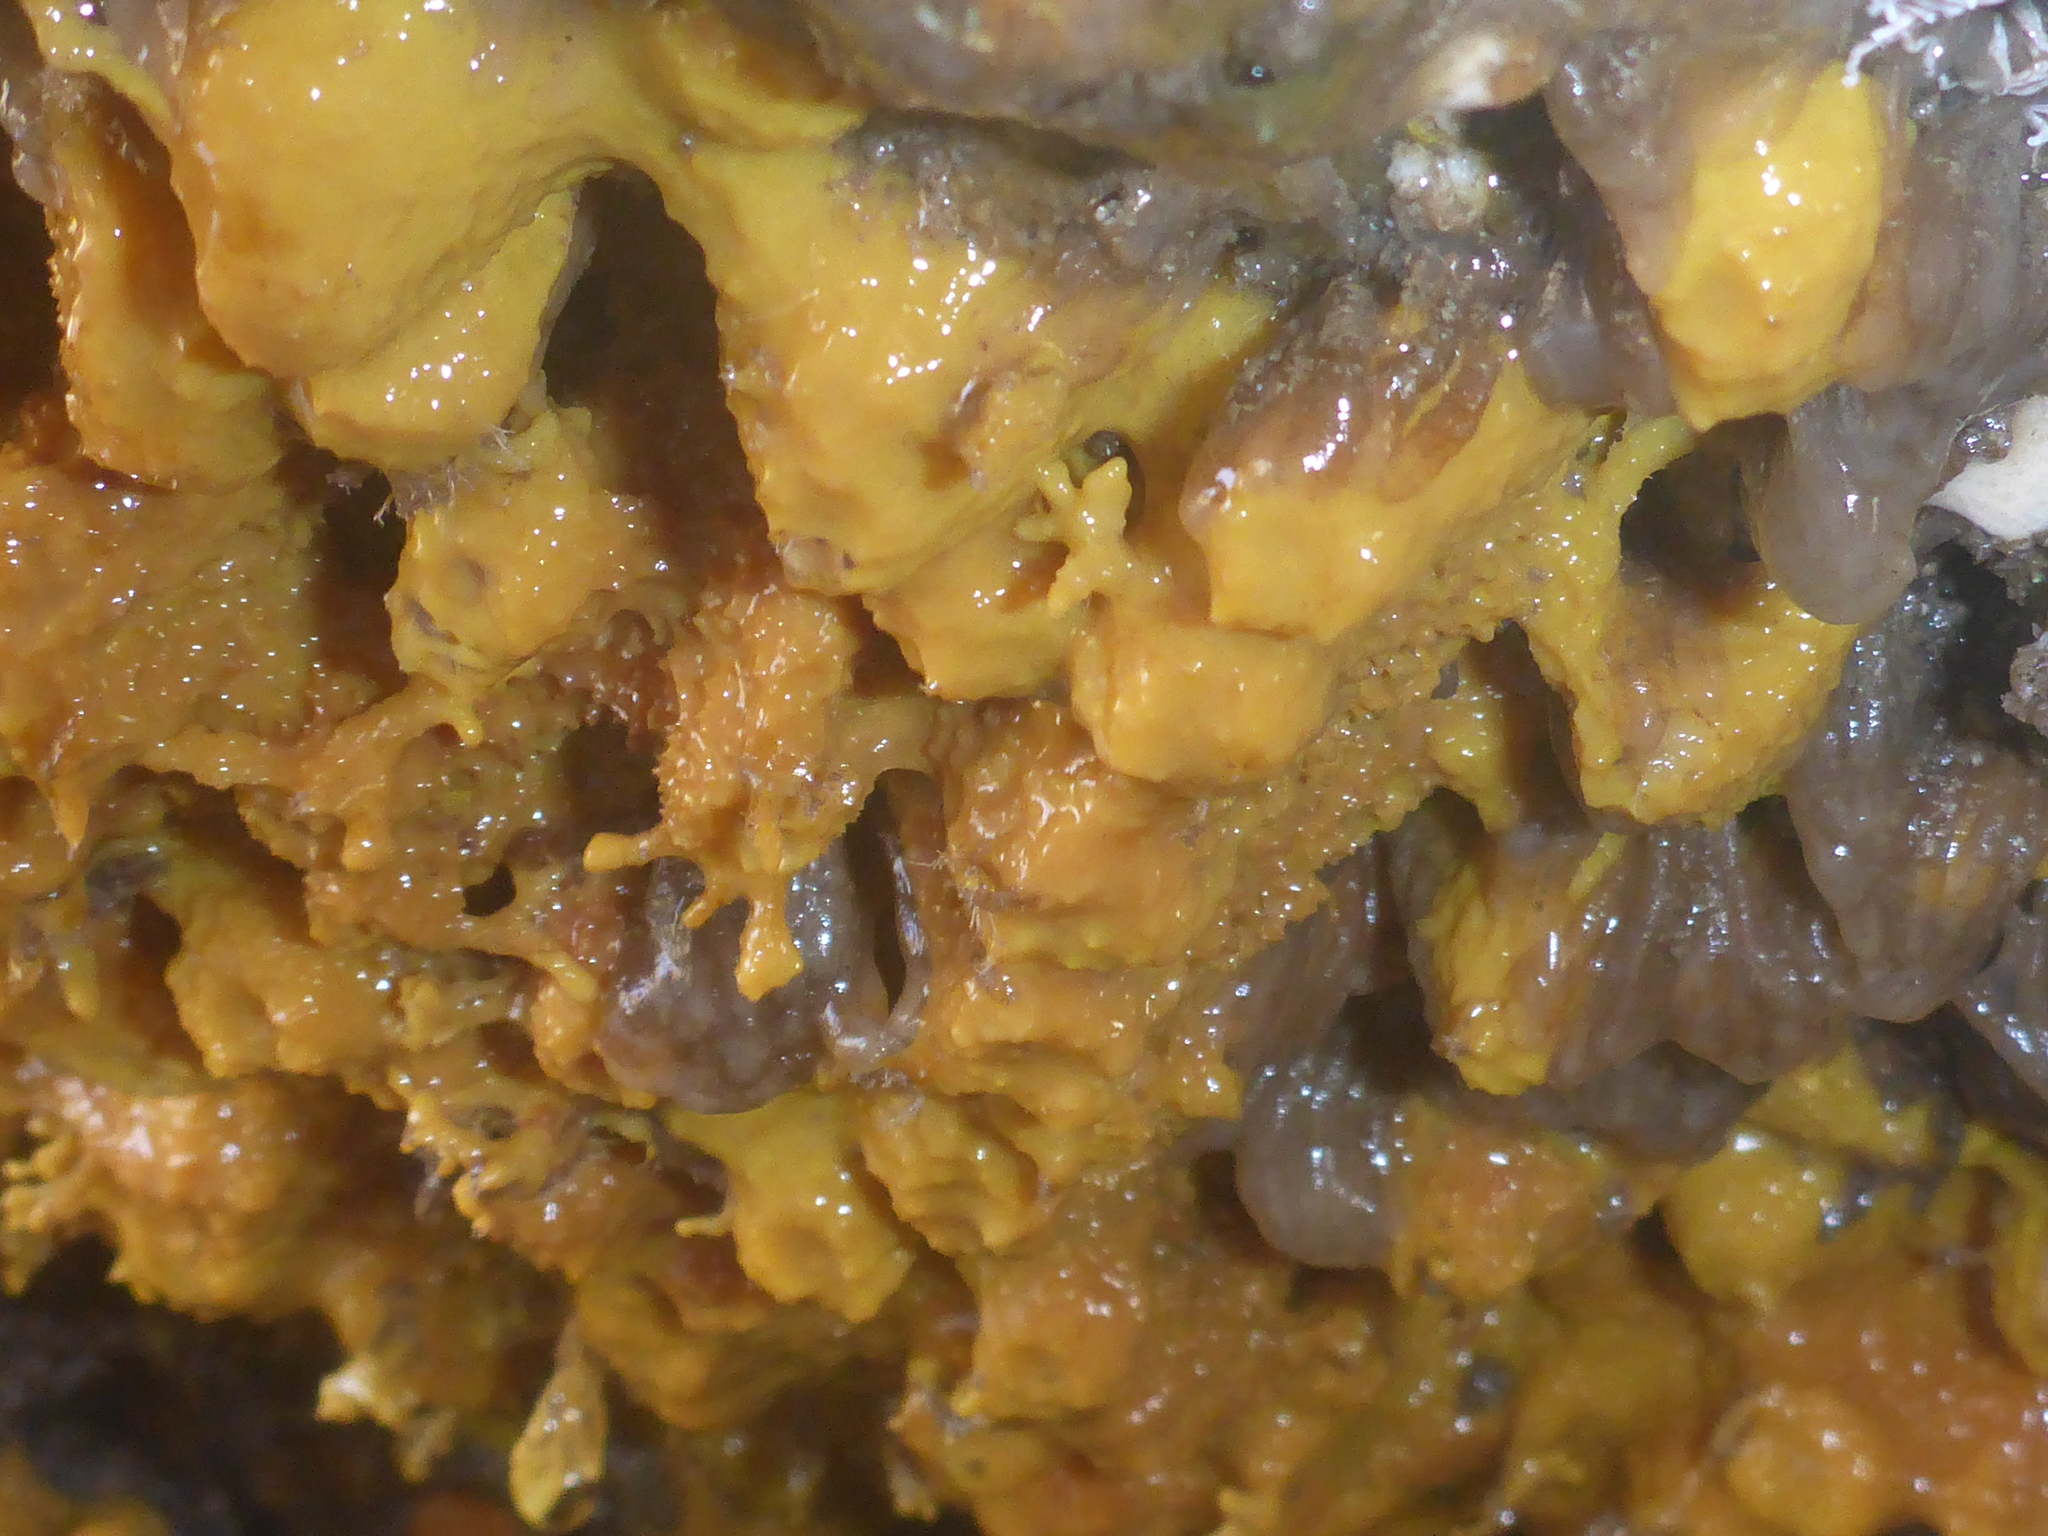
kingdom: Animalia
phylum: Porifera
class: Demospongiae
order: Verongiida
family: Aplysinidae
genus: Aiolochroia
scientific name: Aiolochroia thiona
